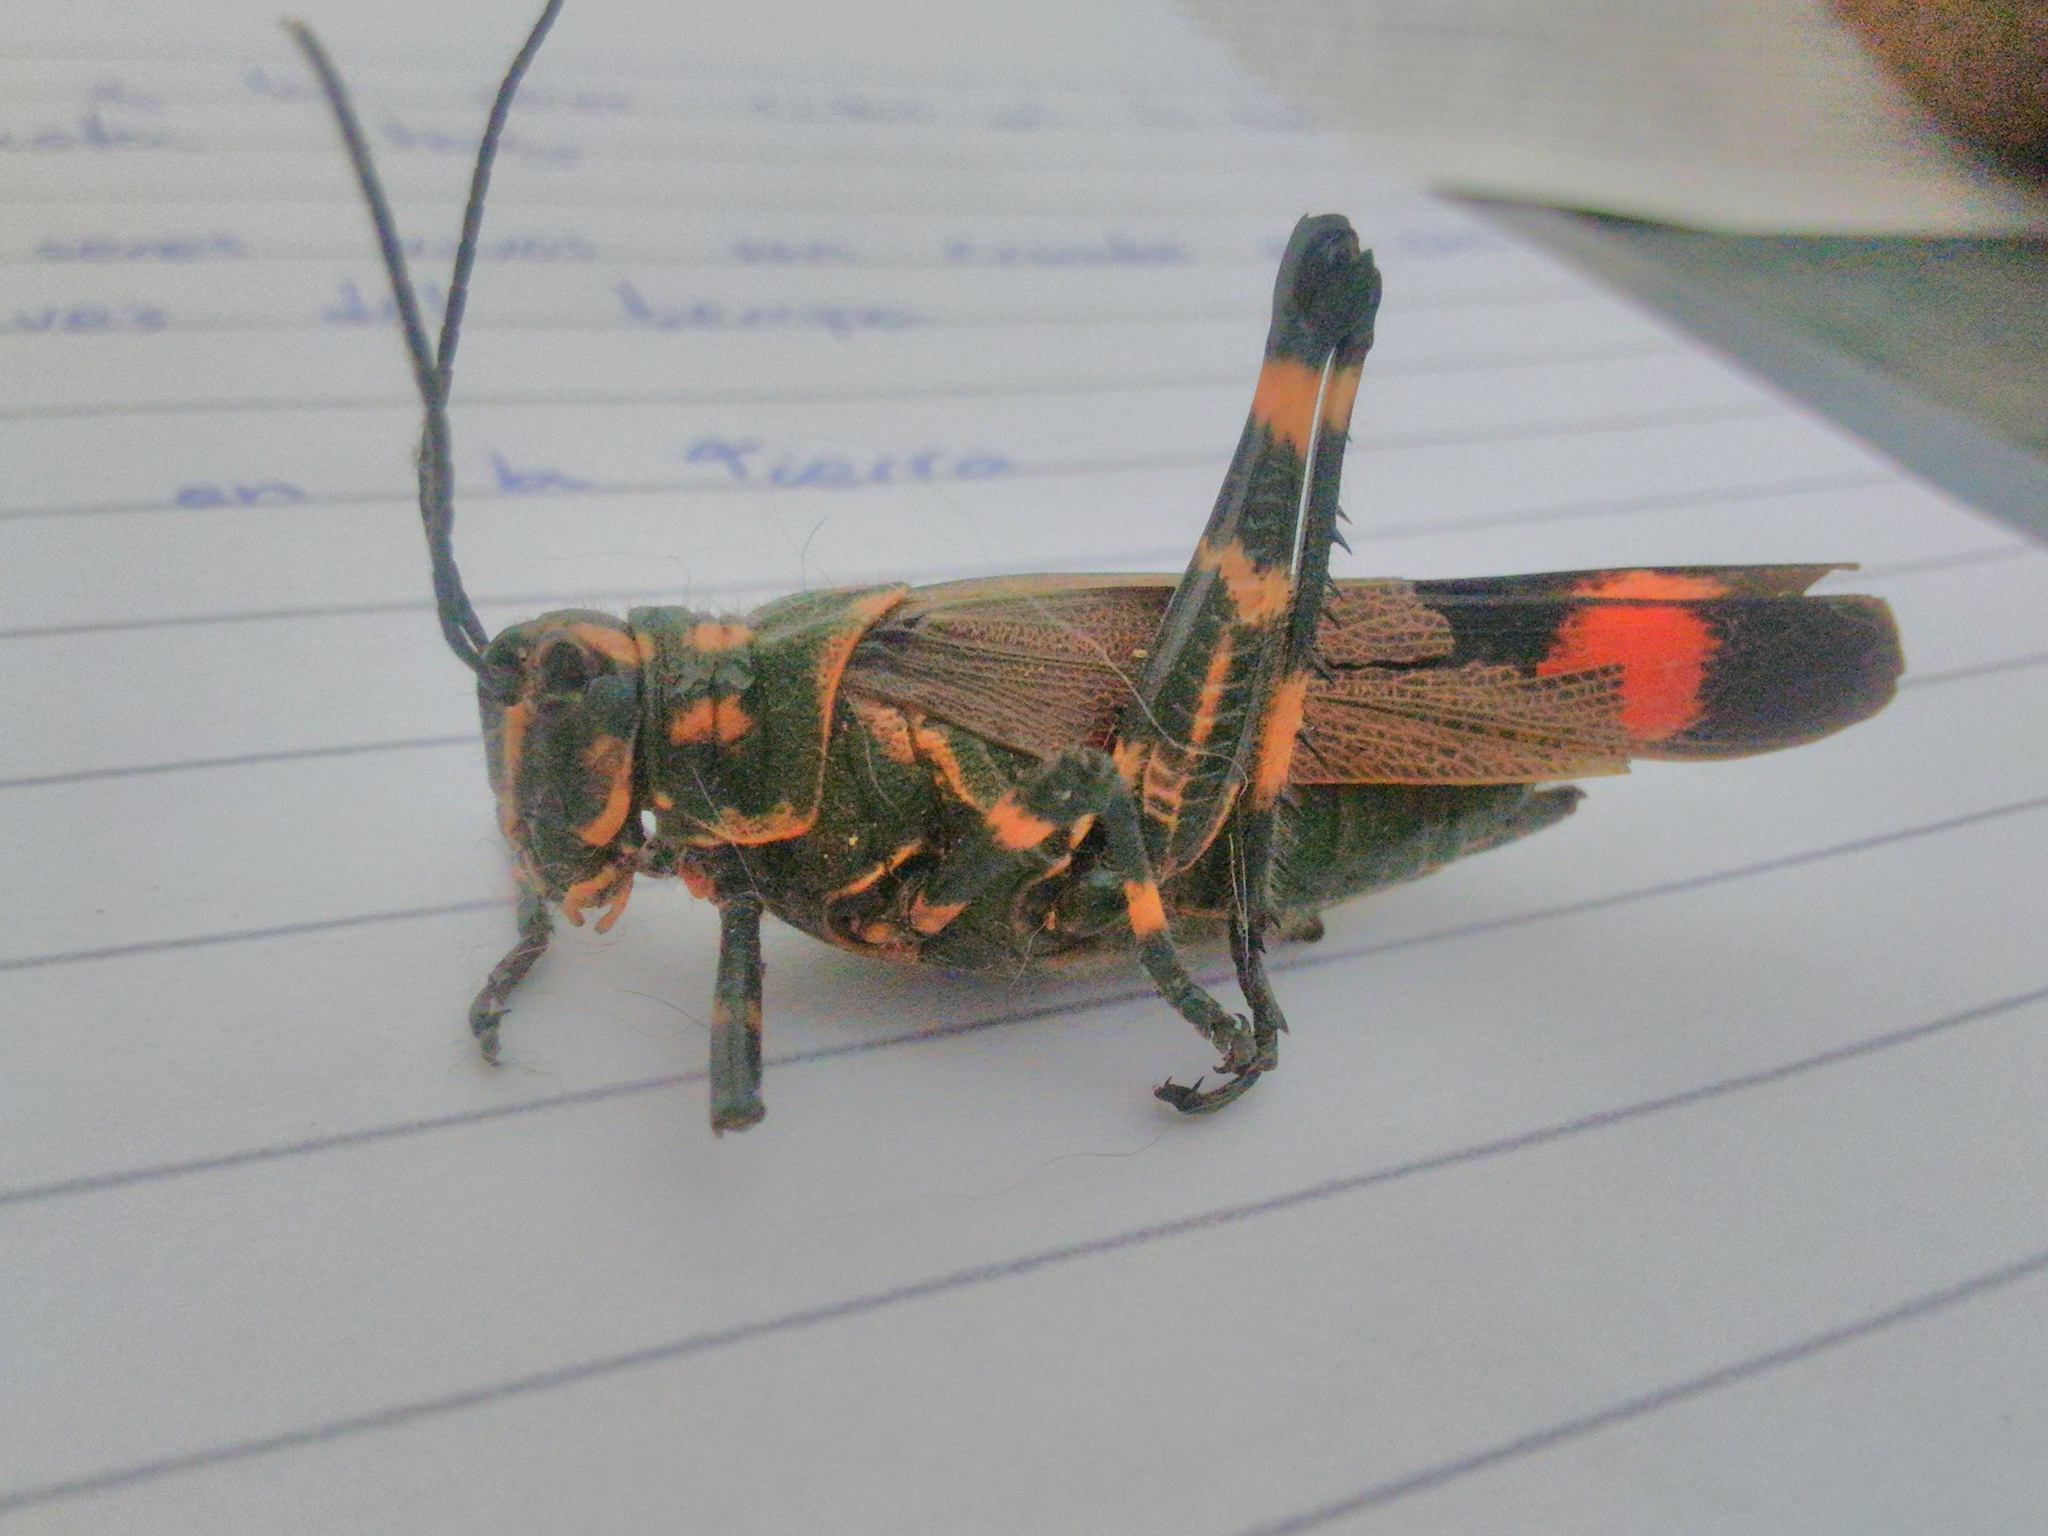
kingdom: Animalia
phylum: Arthropoda
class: Insecta
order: Orthoptera
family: Romaleidae
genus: Chromacris
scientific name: Chromacris speciosa
